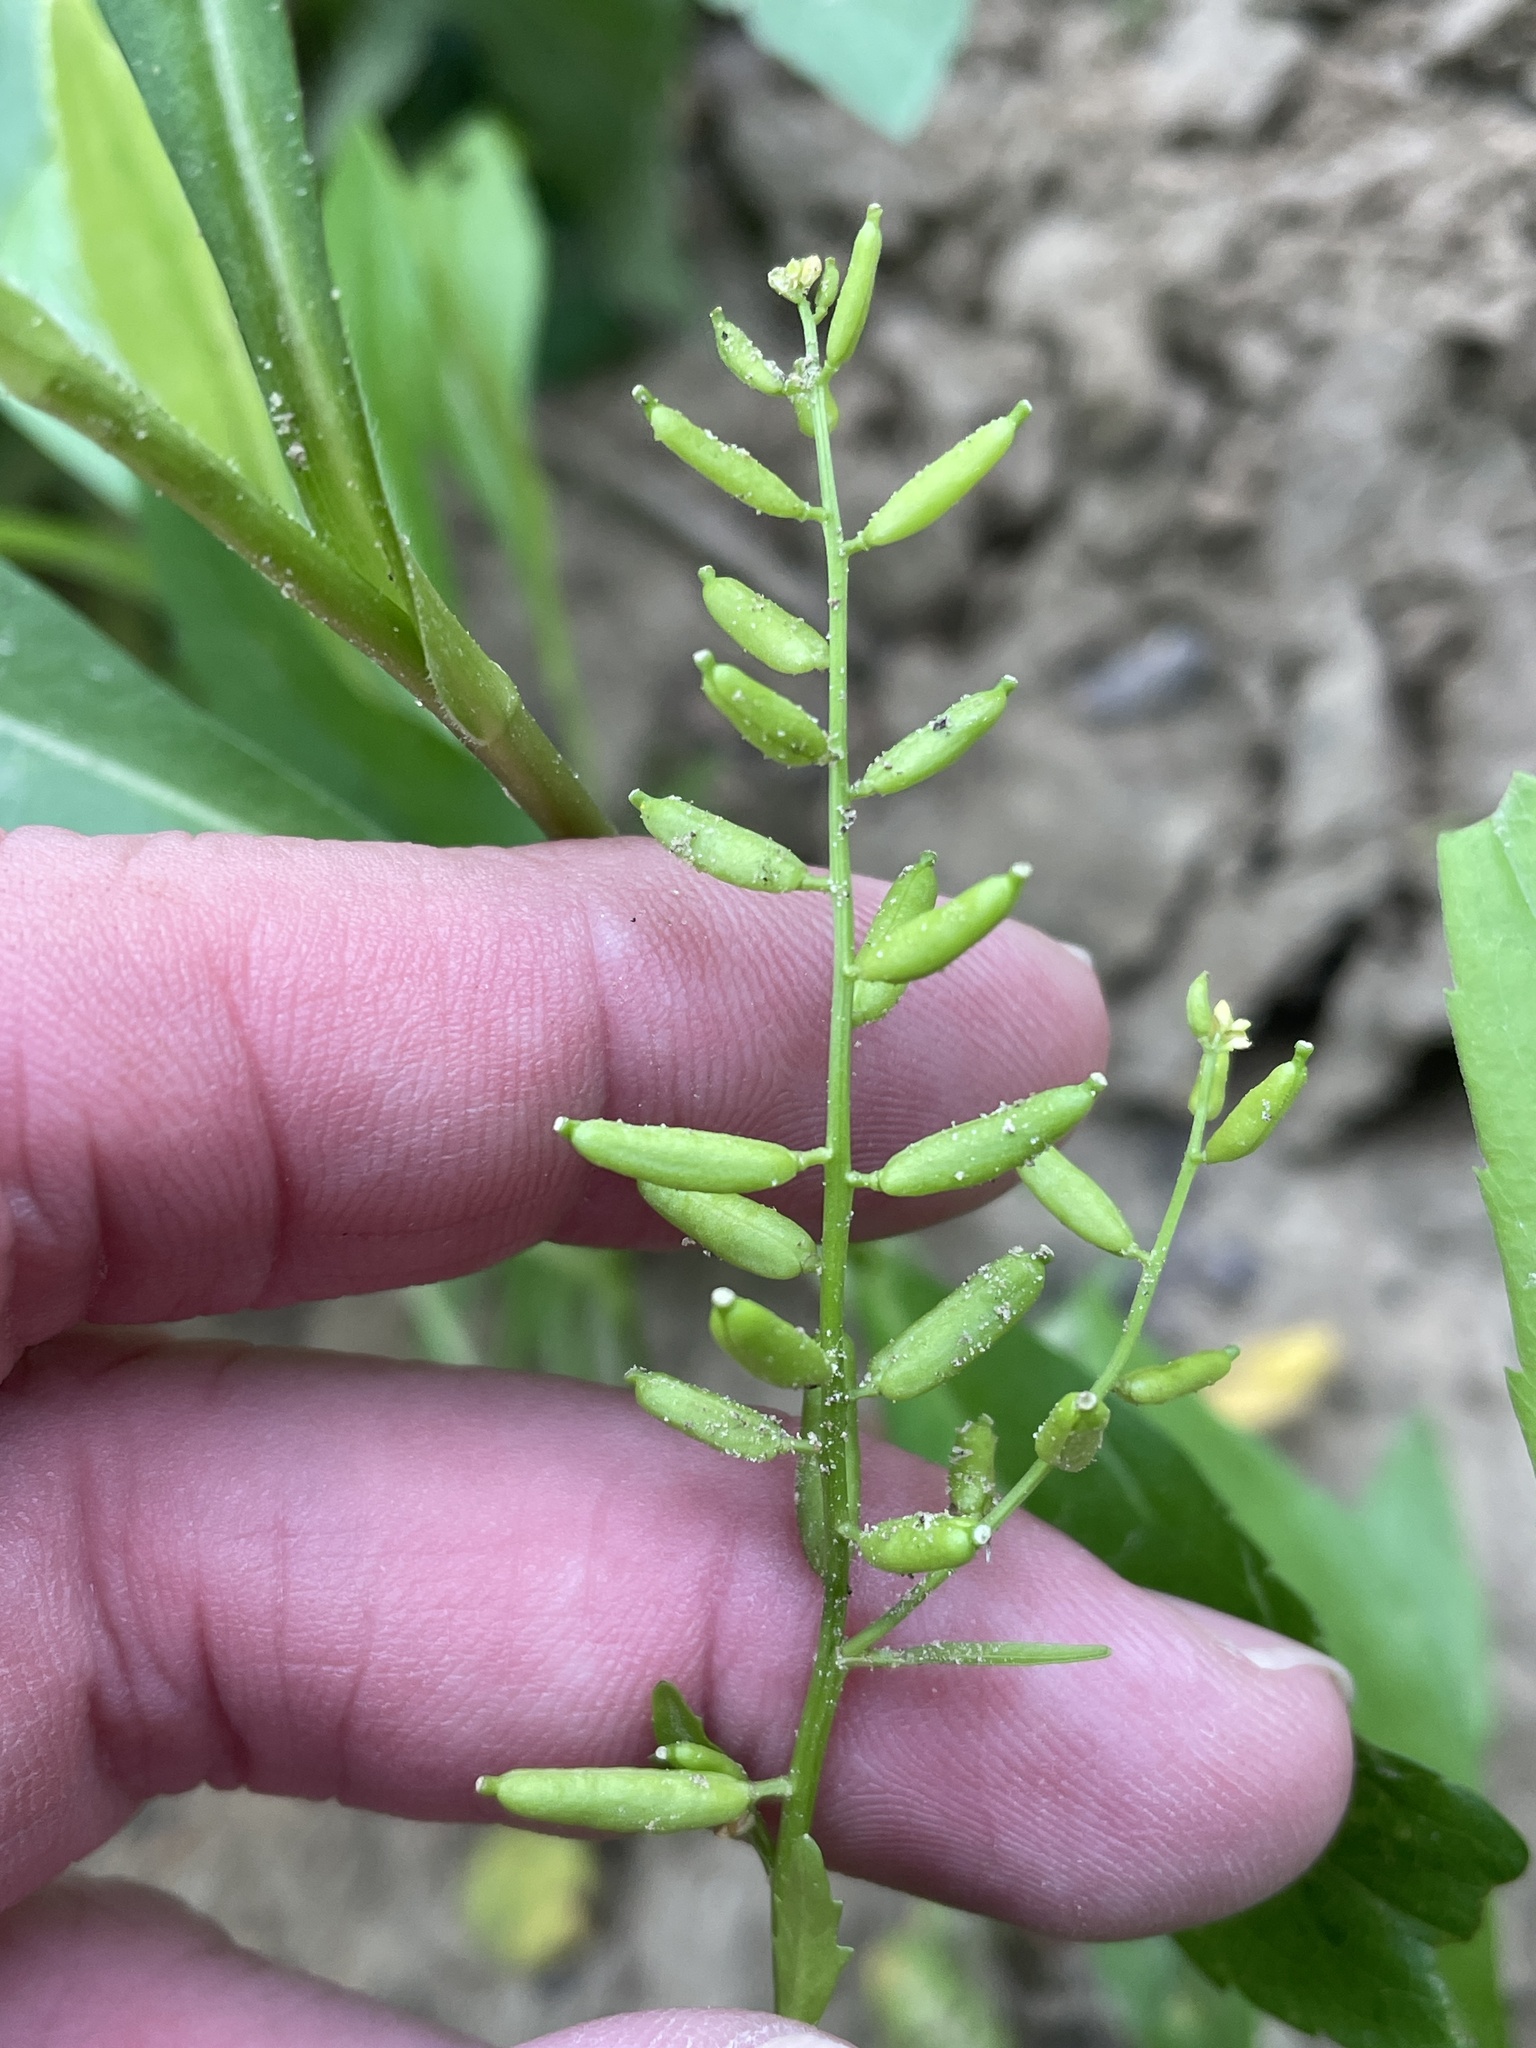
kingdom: Plantae
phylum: Tracheophyta
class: Magnoliopsida
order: Brassicales
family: Brassicaceae
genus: Rorippa
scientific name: Rorippa sessiliflora
